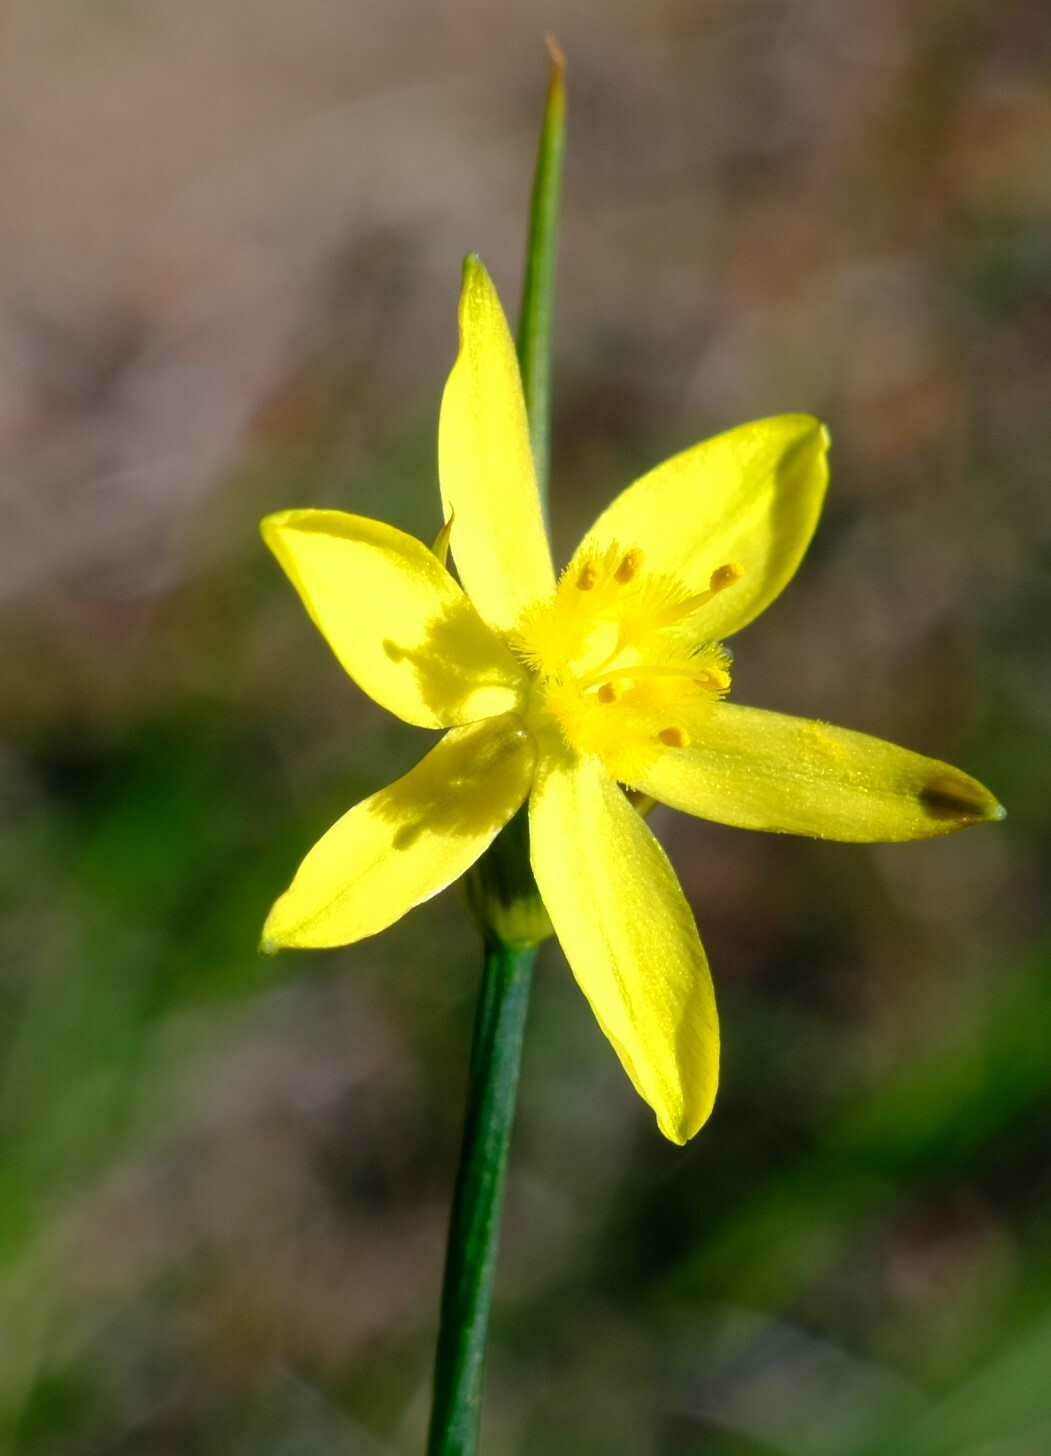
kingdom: Plantae
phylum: Tracheophyta
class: Liliopsida
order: Asparagales
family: Asphodelaceae
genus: Tricoryne
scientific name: Tricoryne elatior
